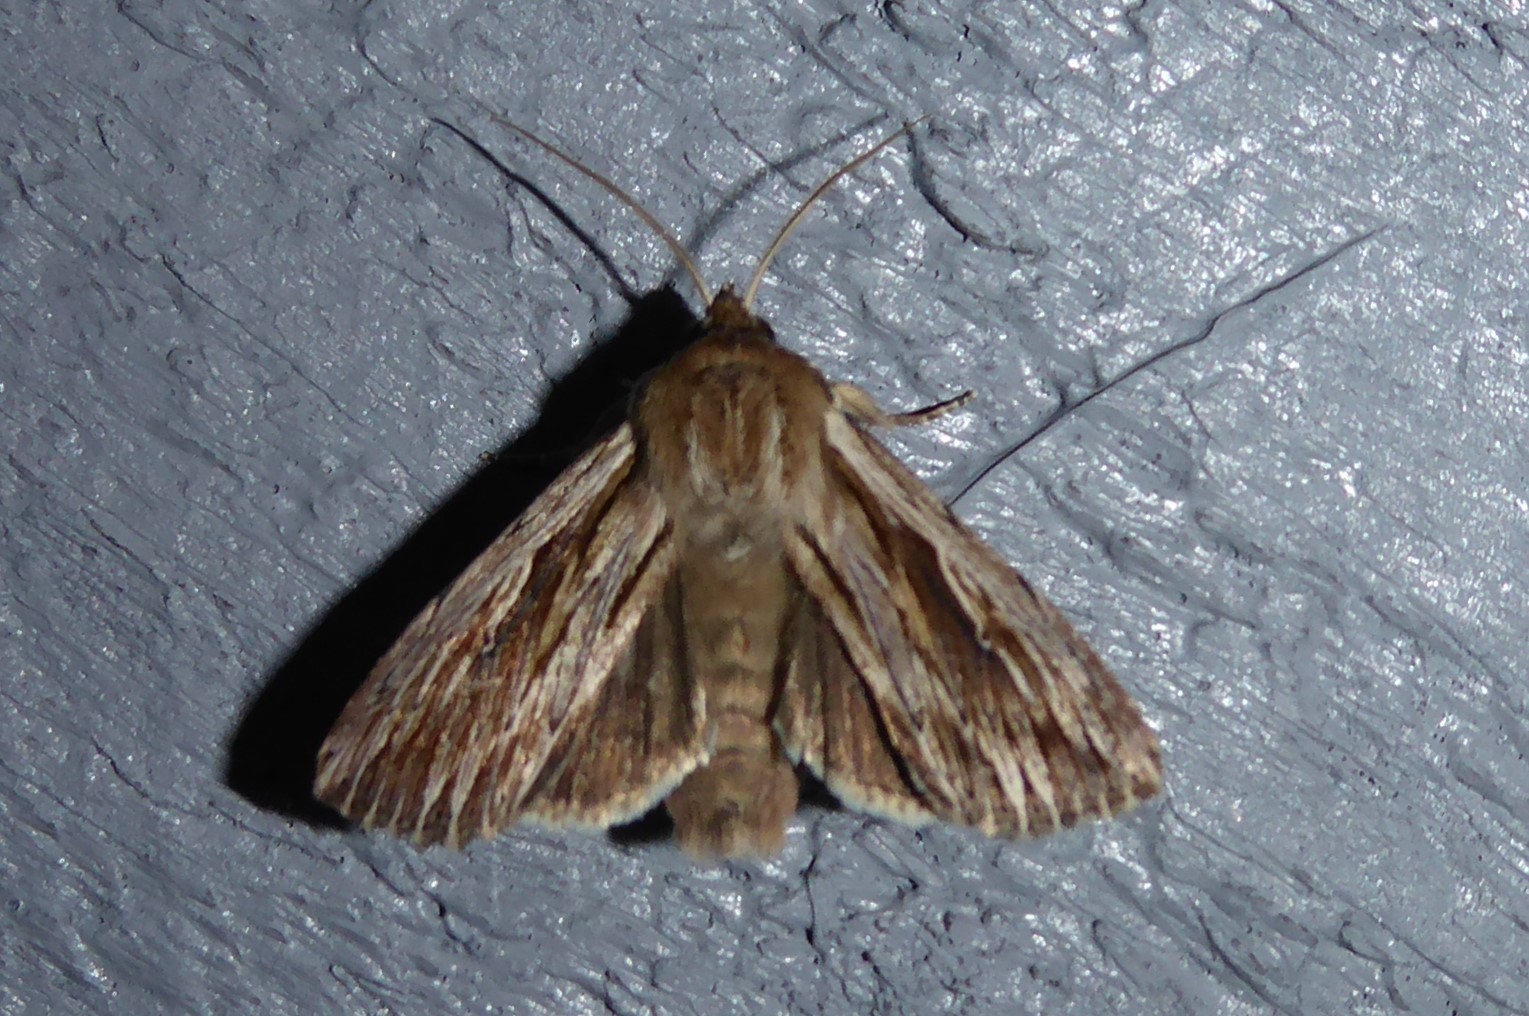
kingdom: Animalia
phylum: Arthropoda
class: Insecta
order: Lepidoptera
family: Noctuidae
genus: Persectania
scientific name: Persectania aversa
